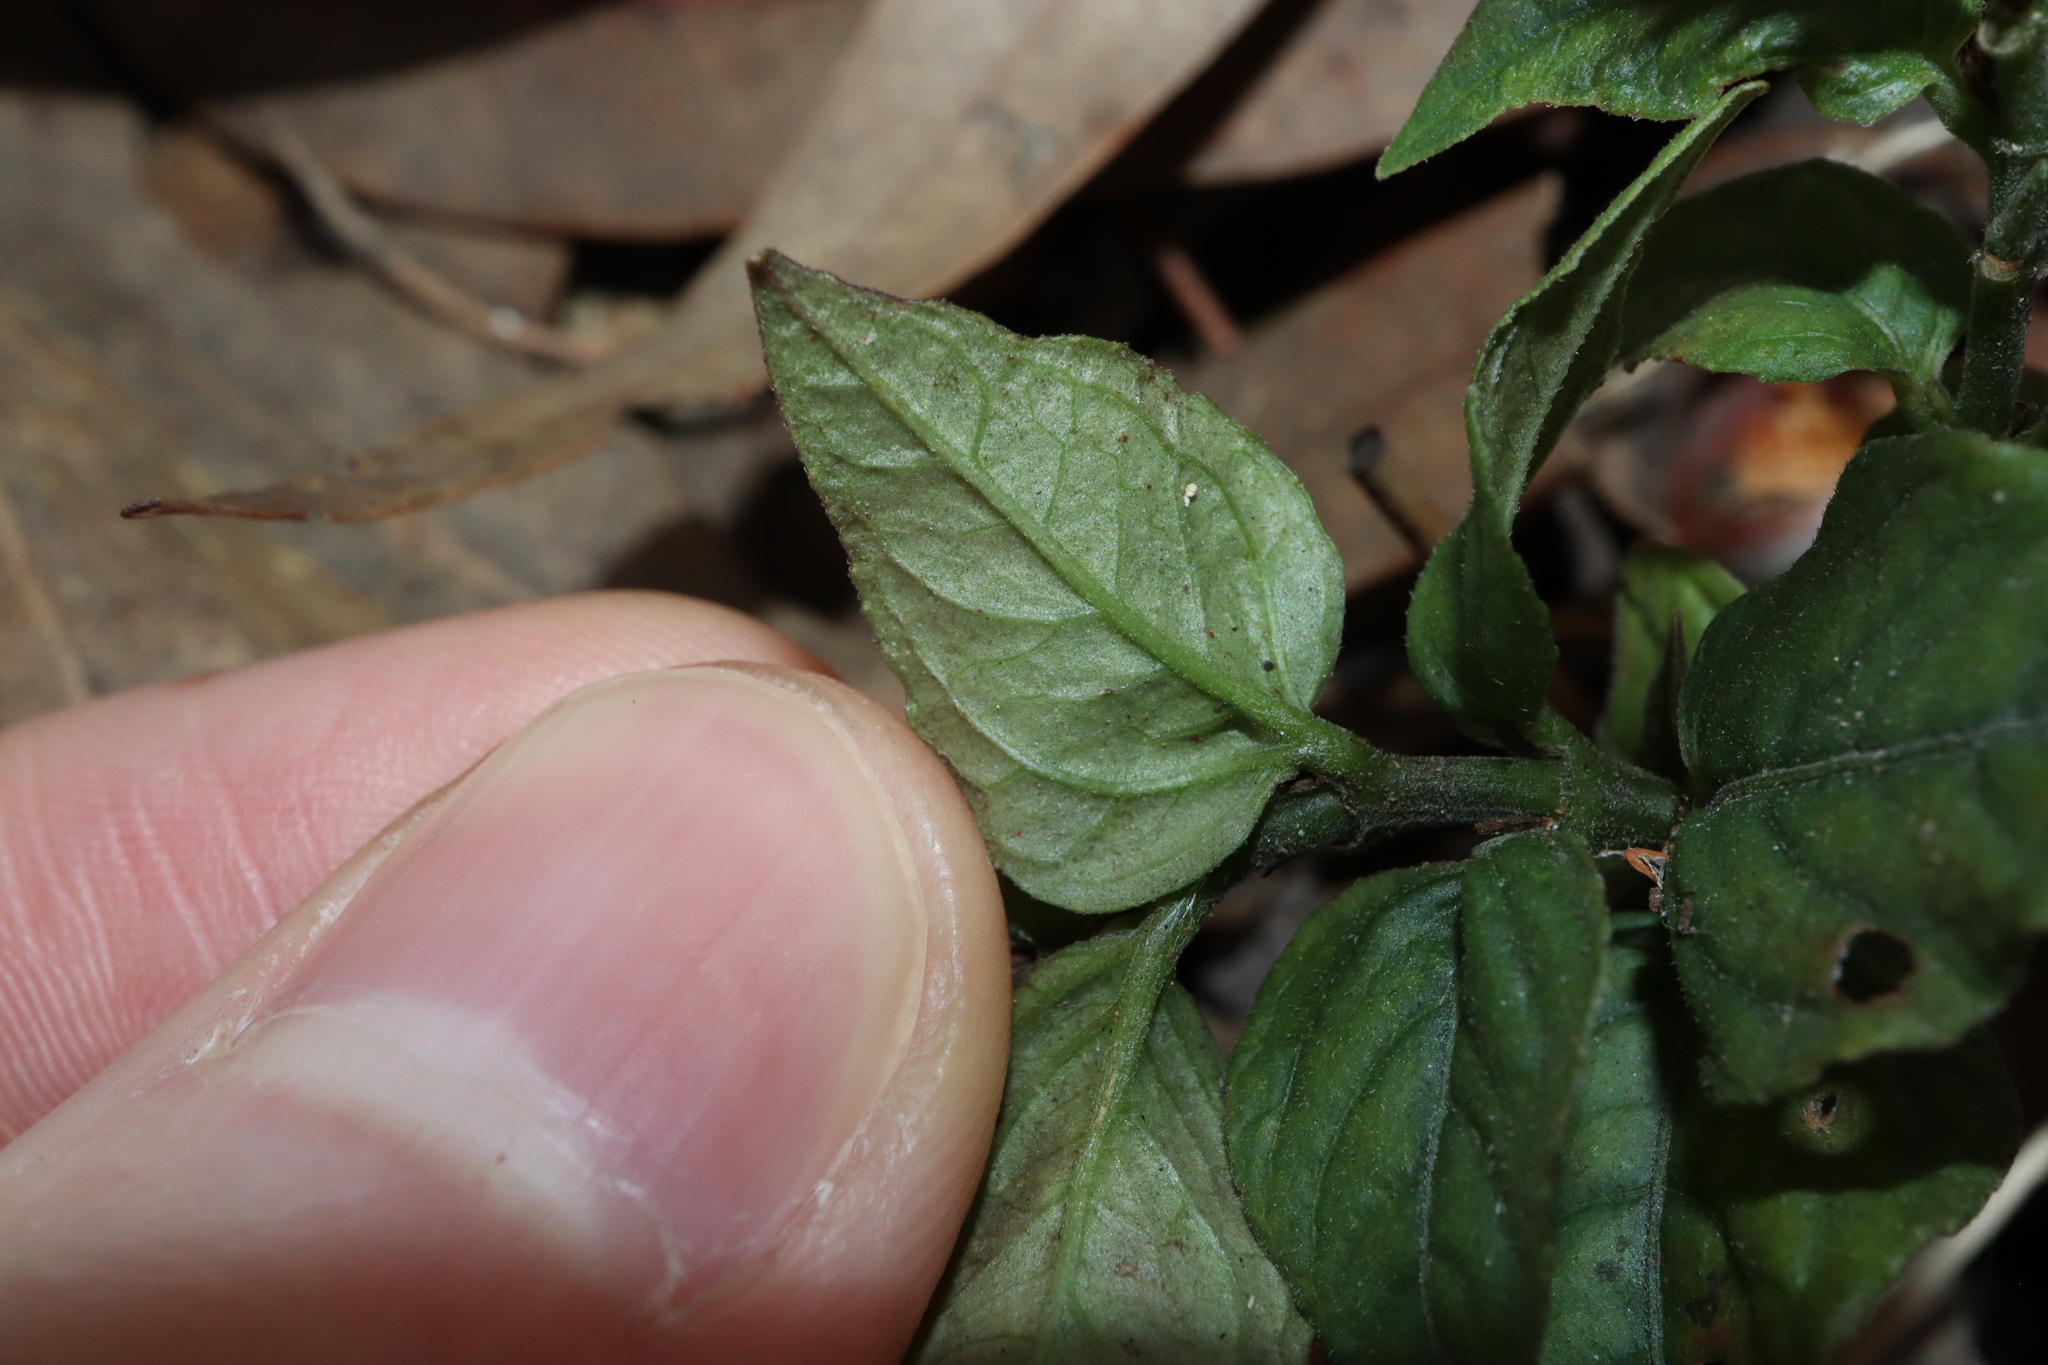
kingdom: Plantae
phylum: Tracheophyta
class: Magnoliopsida
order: Lamiales
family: Acanthaceae
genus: Pseuderanthemum
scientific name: Pseuderanthemum variabile
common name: Night and afternoon
